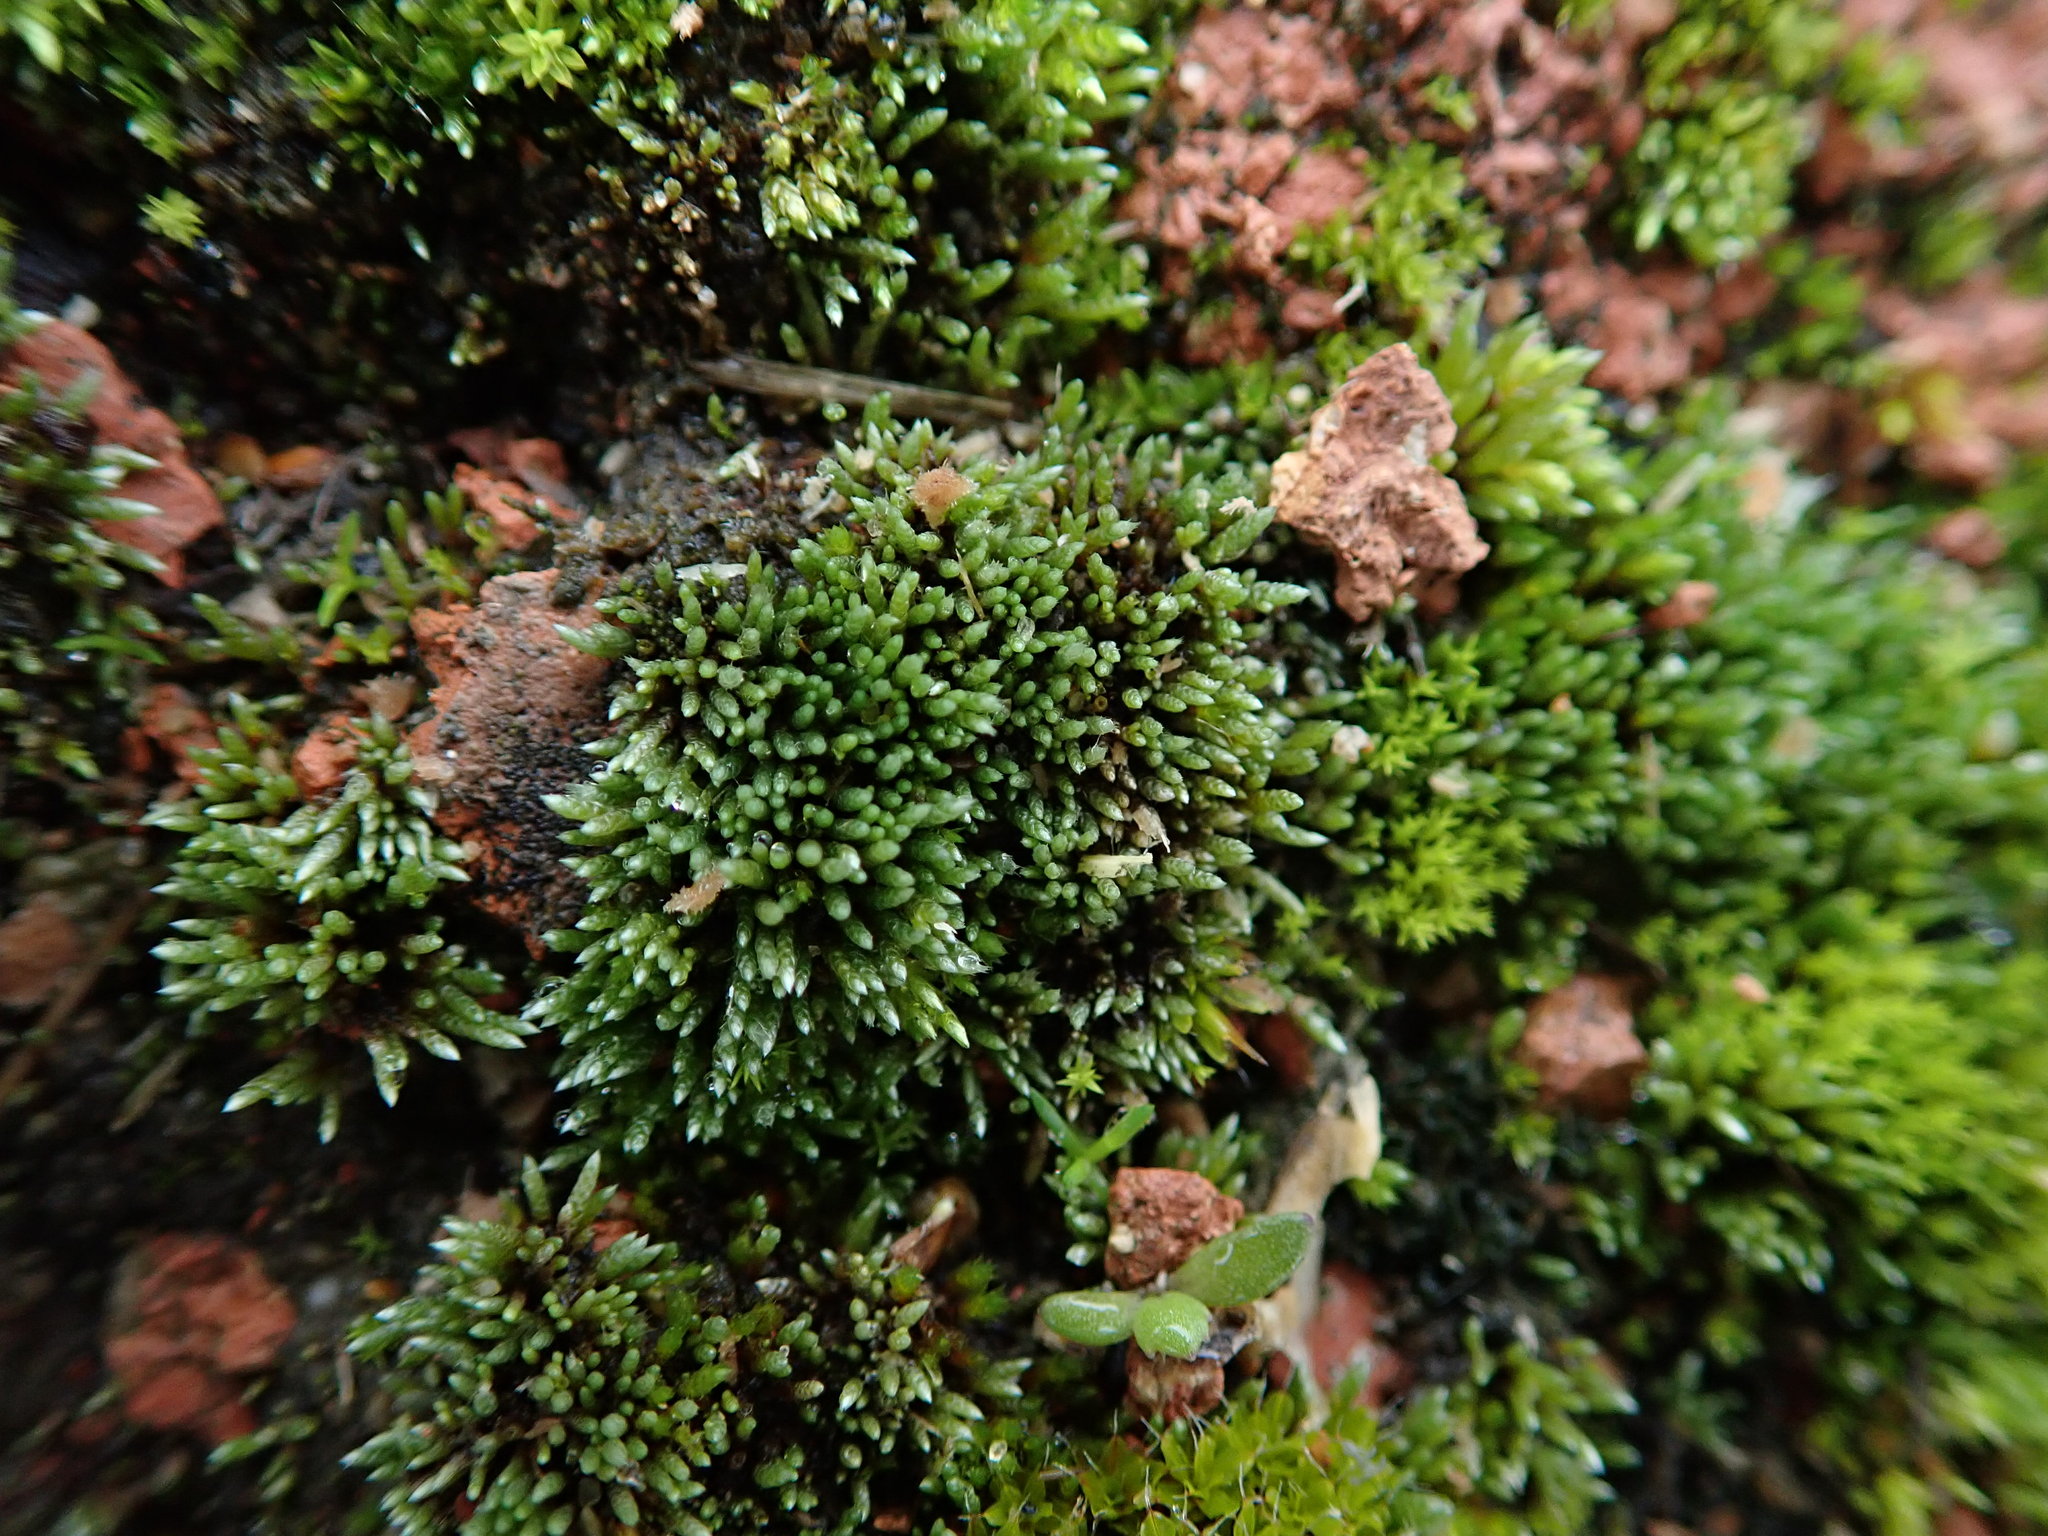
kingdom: Plantae
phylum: Bryophyta
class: Bryopsida
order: Bryales
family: Bryaceae
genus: Bryum
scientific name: Bryum argenteum
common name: Silver-moss
